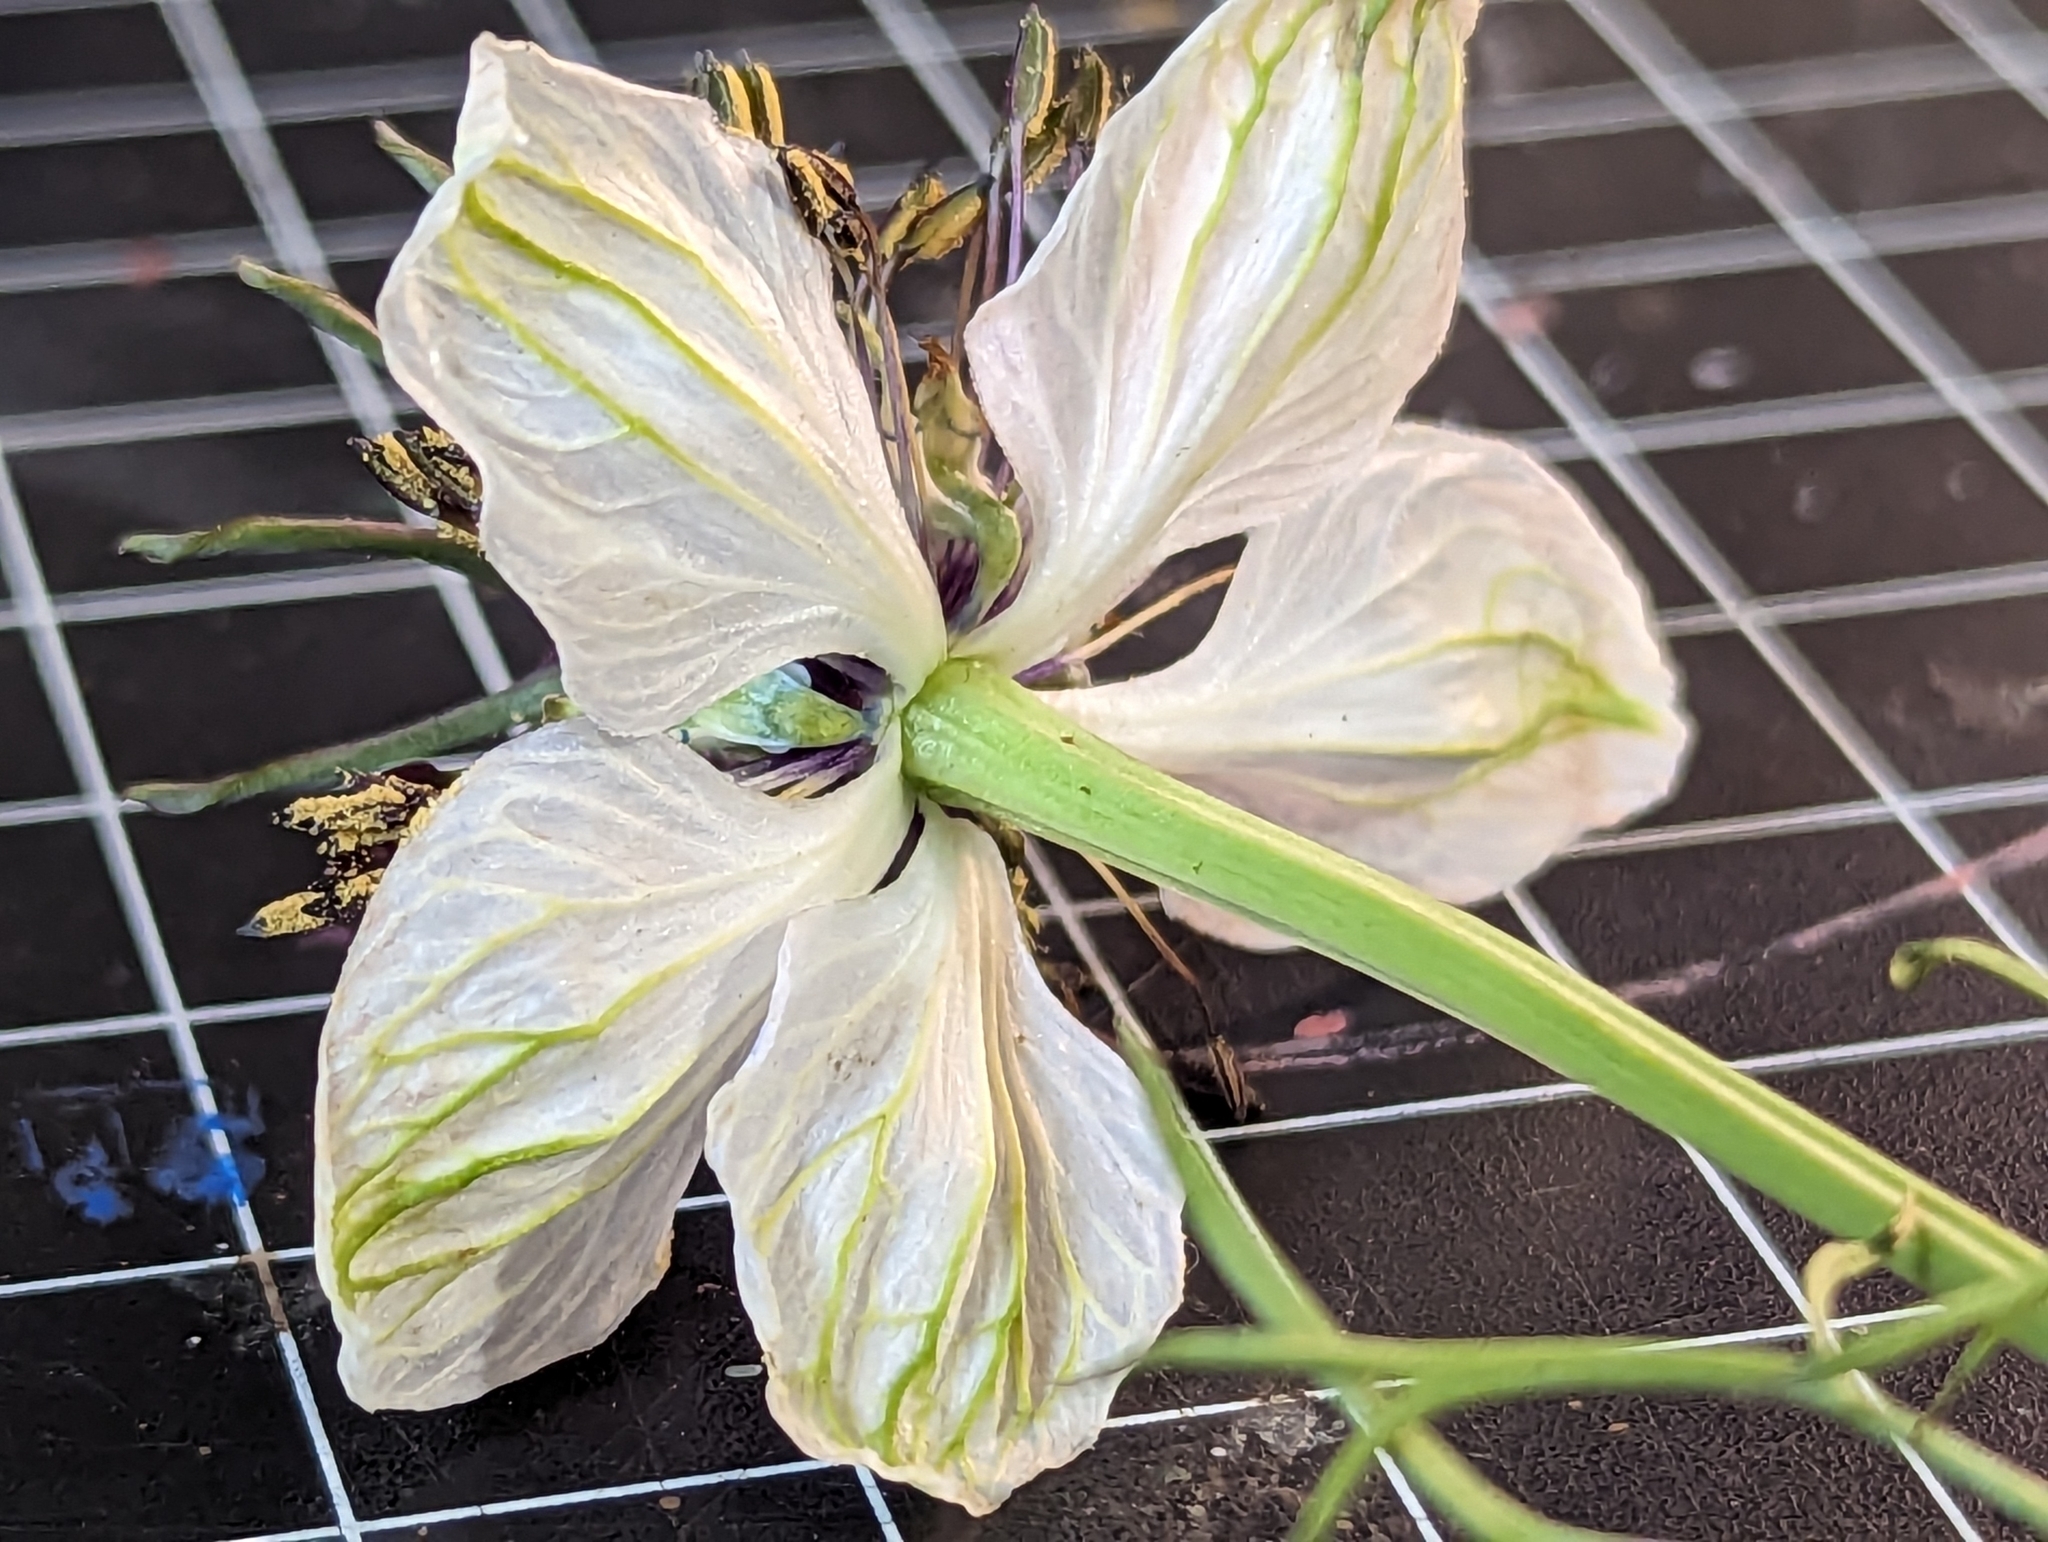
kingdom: Plantae
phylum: Tracheophyta
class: Magnoliopsida
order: Ranunculales
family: Ranunculaceae
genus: Nigella
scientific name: Nigella damascena
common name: Love-in-a-mist
